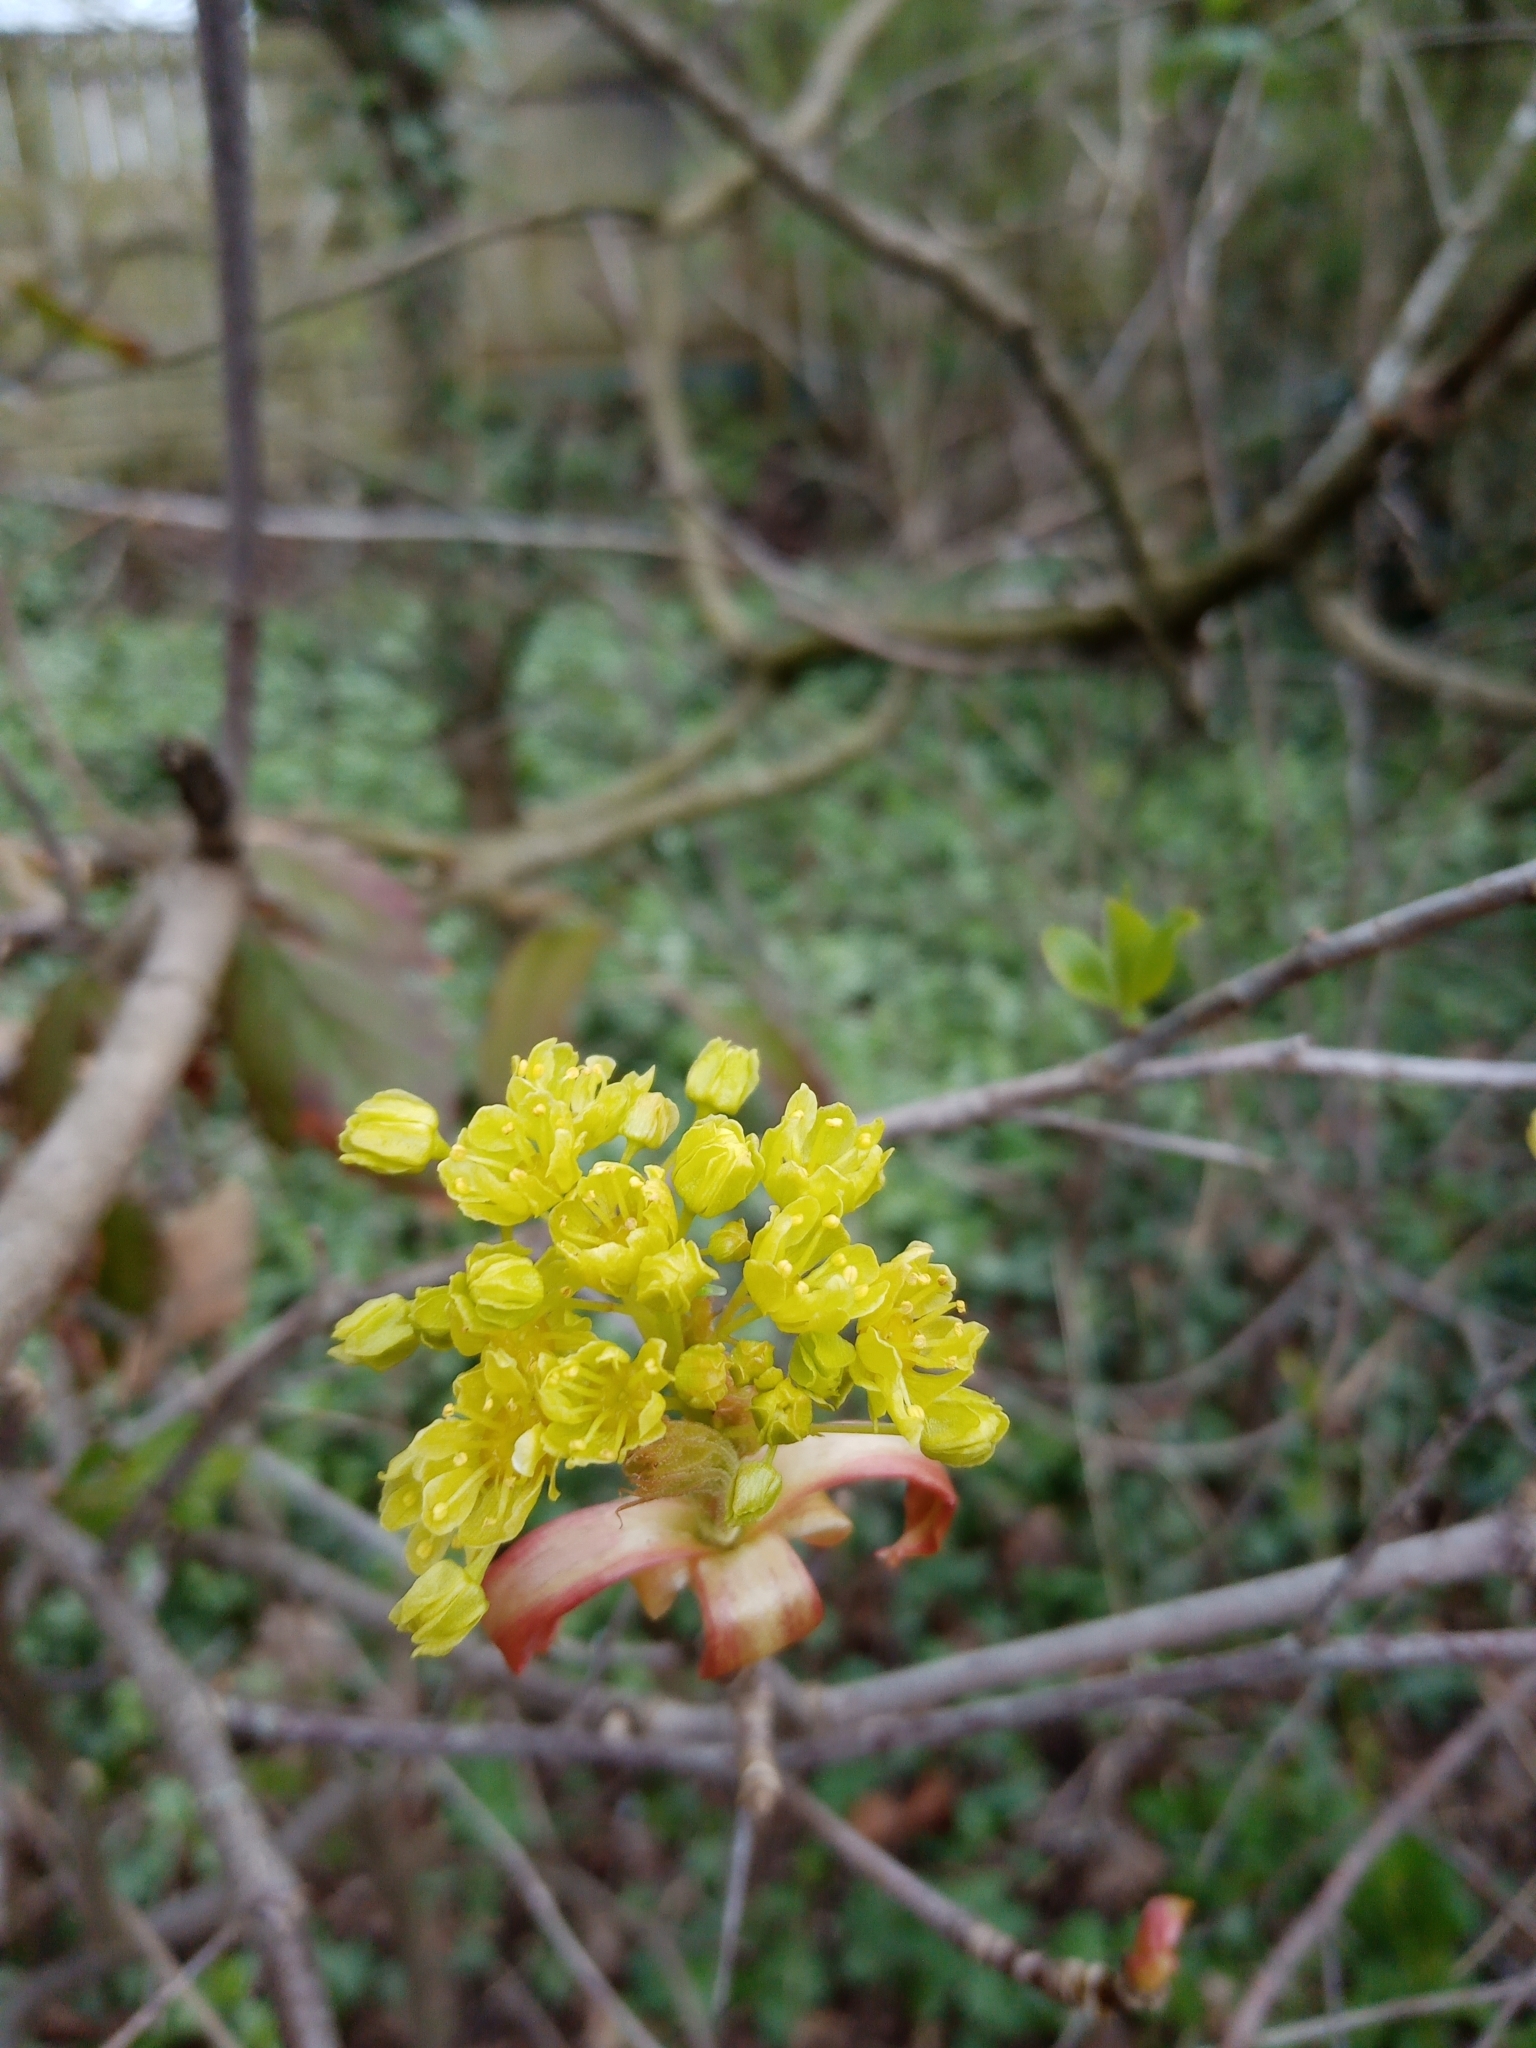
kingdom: Plantae
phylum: Tracheophyta
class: Magnoliopsida
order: Sapindales
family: Sapindaceae
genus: Acer
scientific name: Acer platanoides
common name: Norway maple
